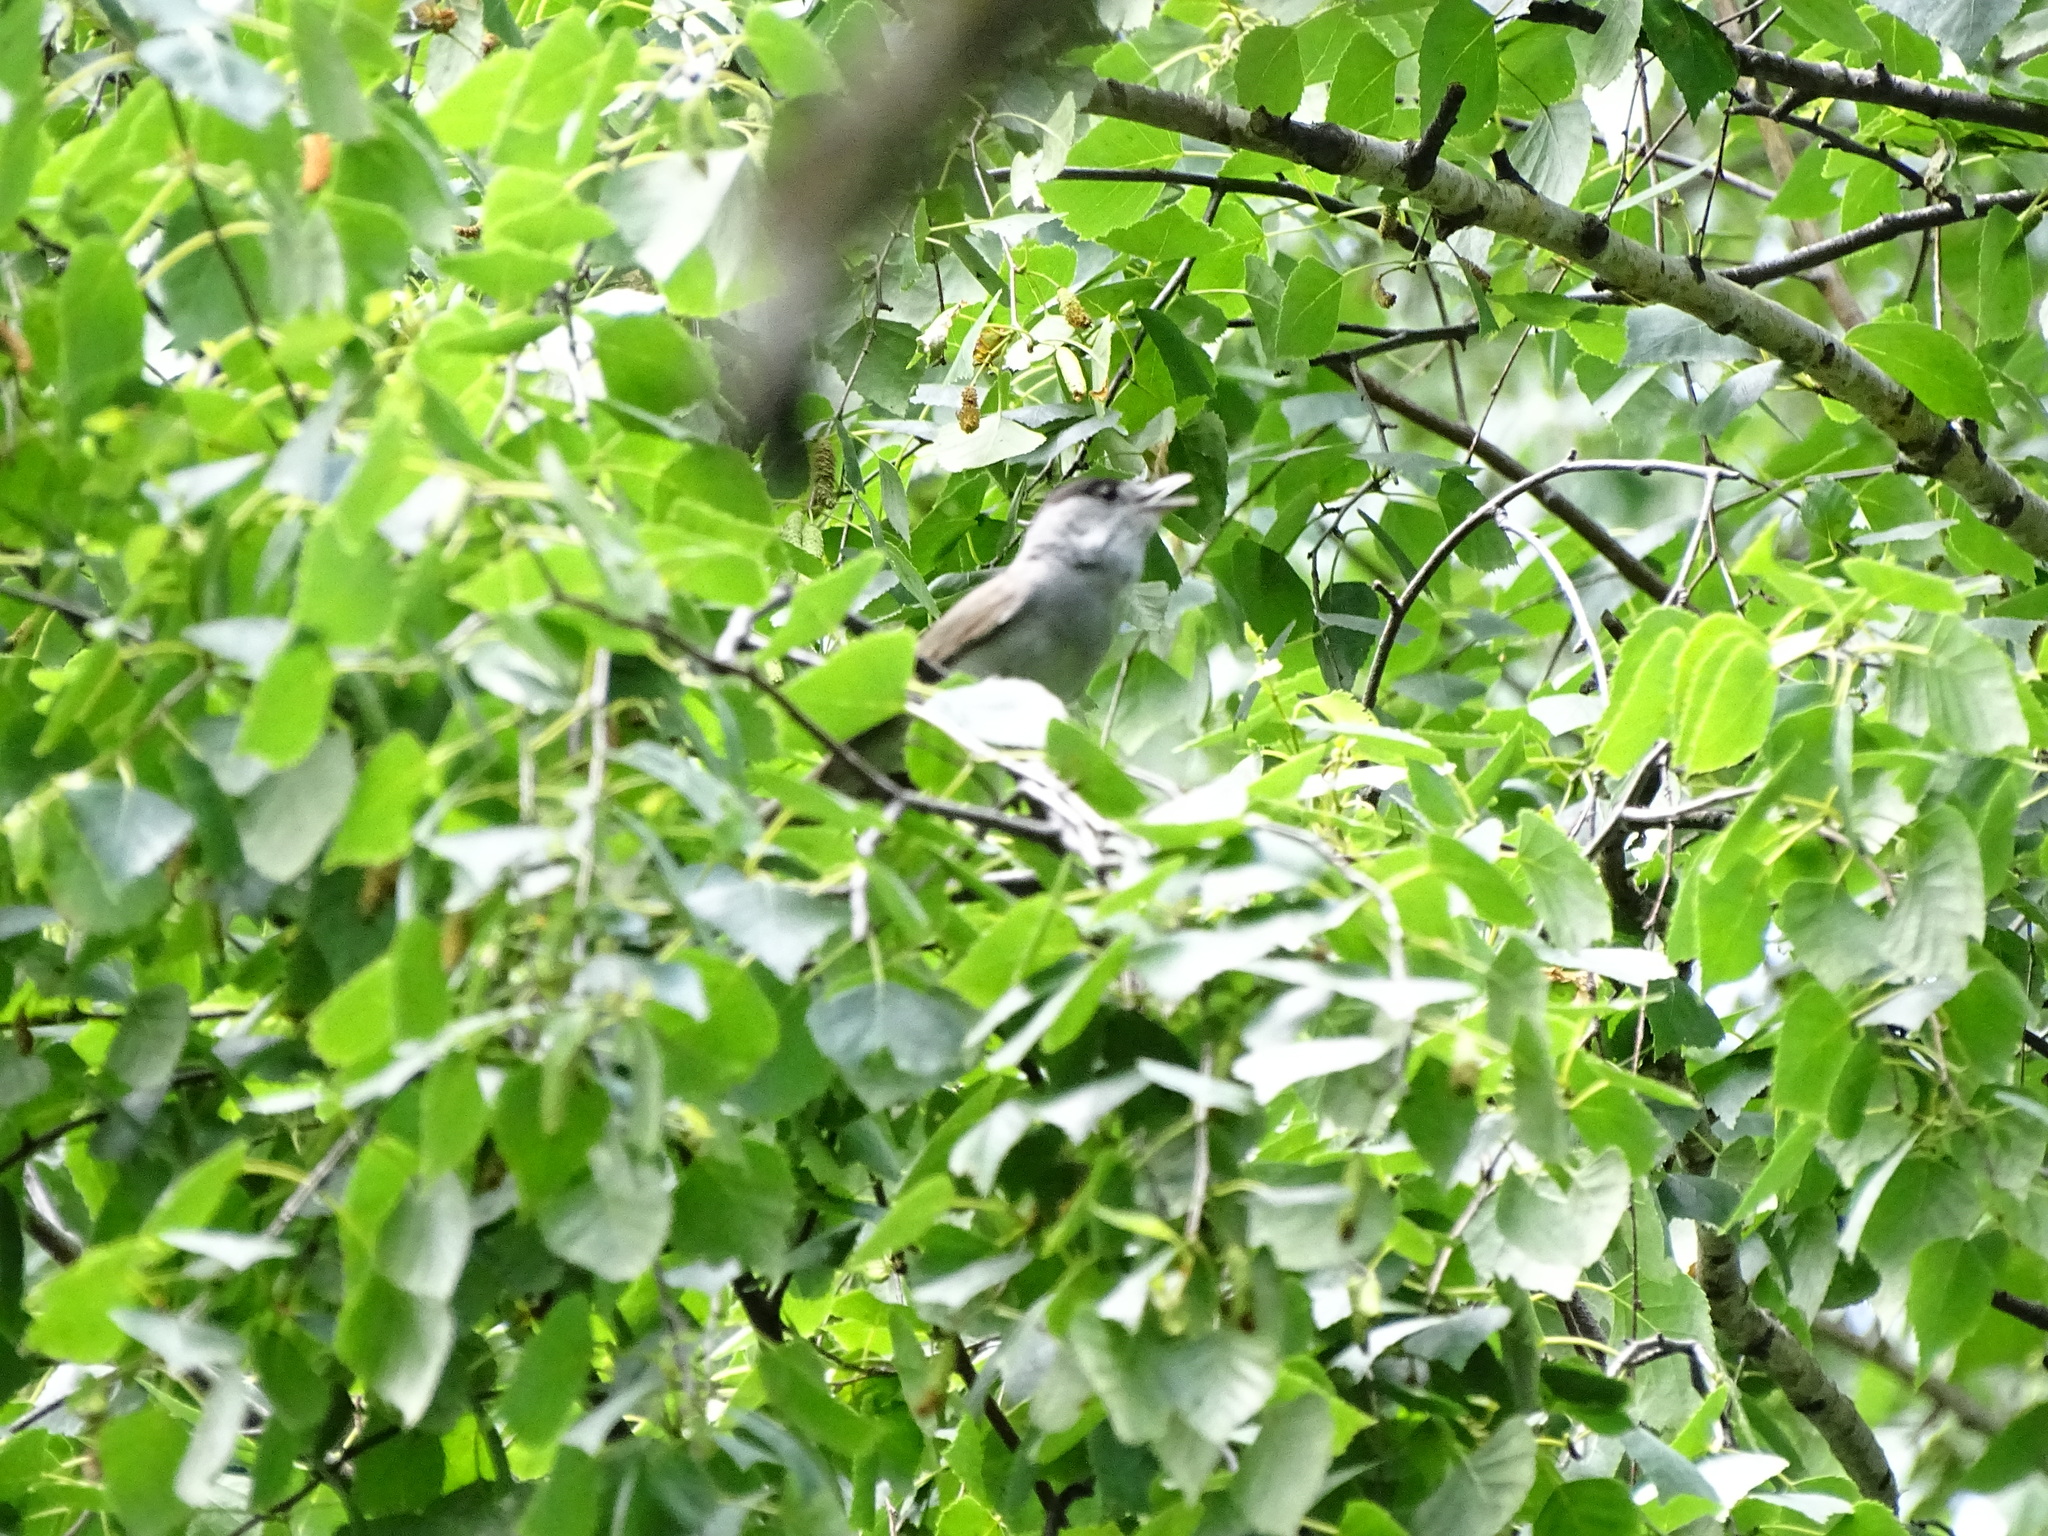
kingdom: Animalia
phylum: Chordata
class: Aves
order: Passeriformes
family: Sylviidae
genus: Sylvia
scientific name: Sylvia atricapilla
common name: Eurasian blackcap
